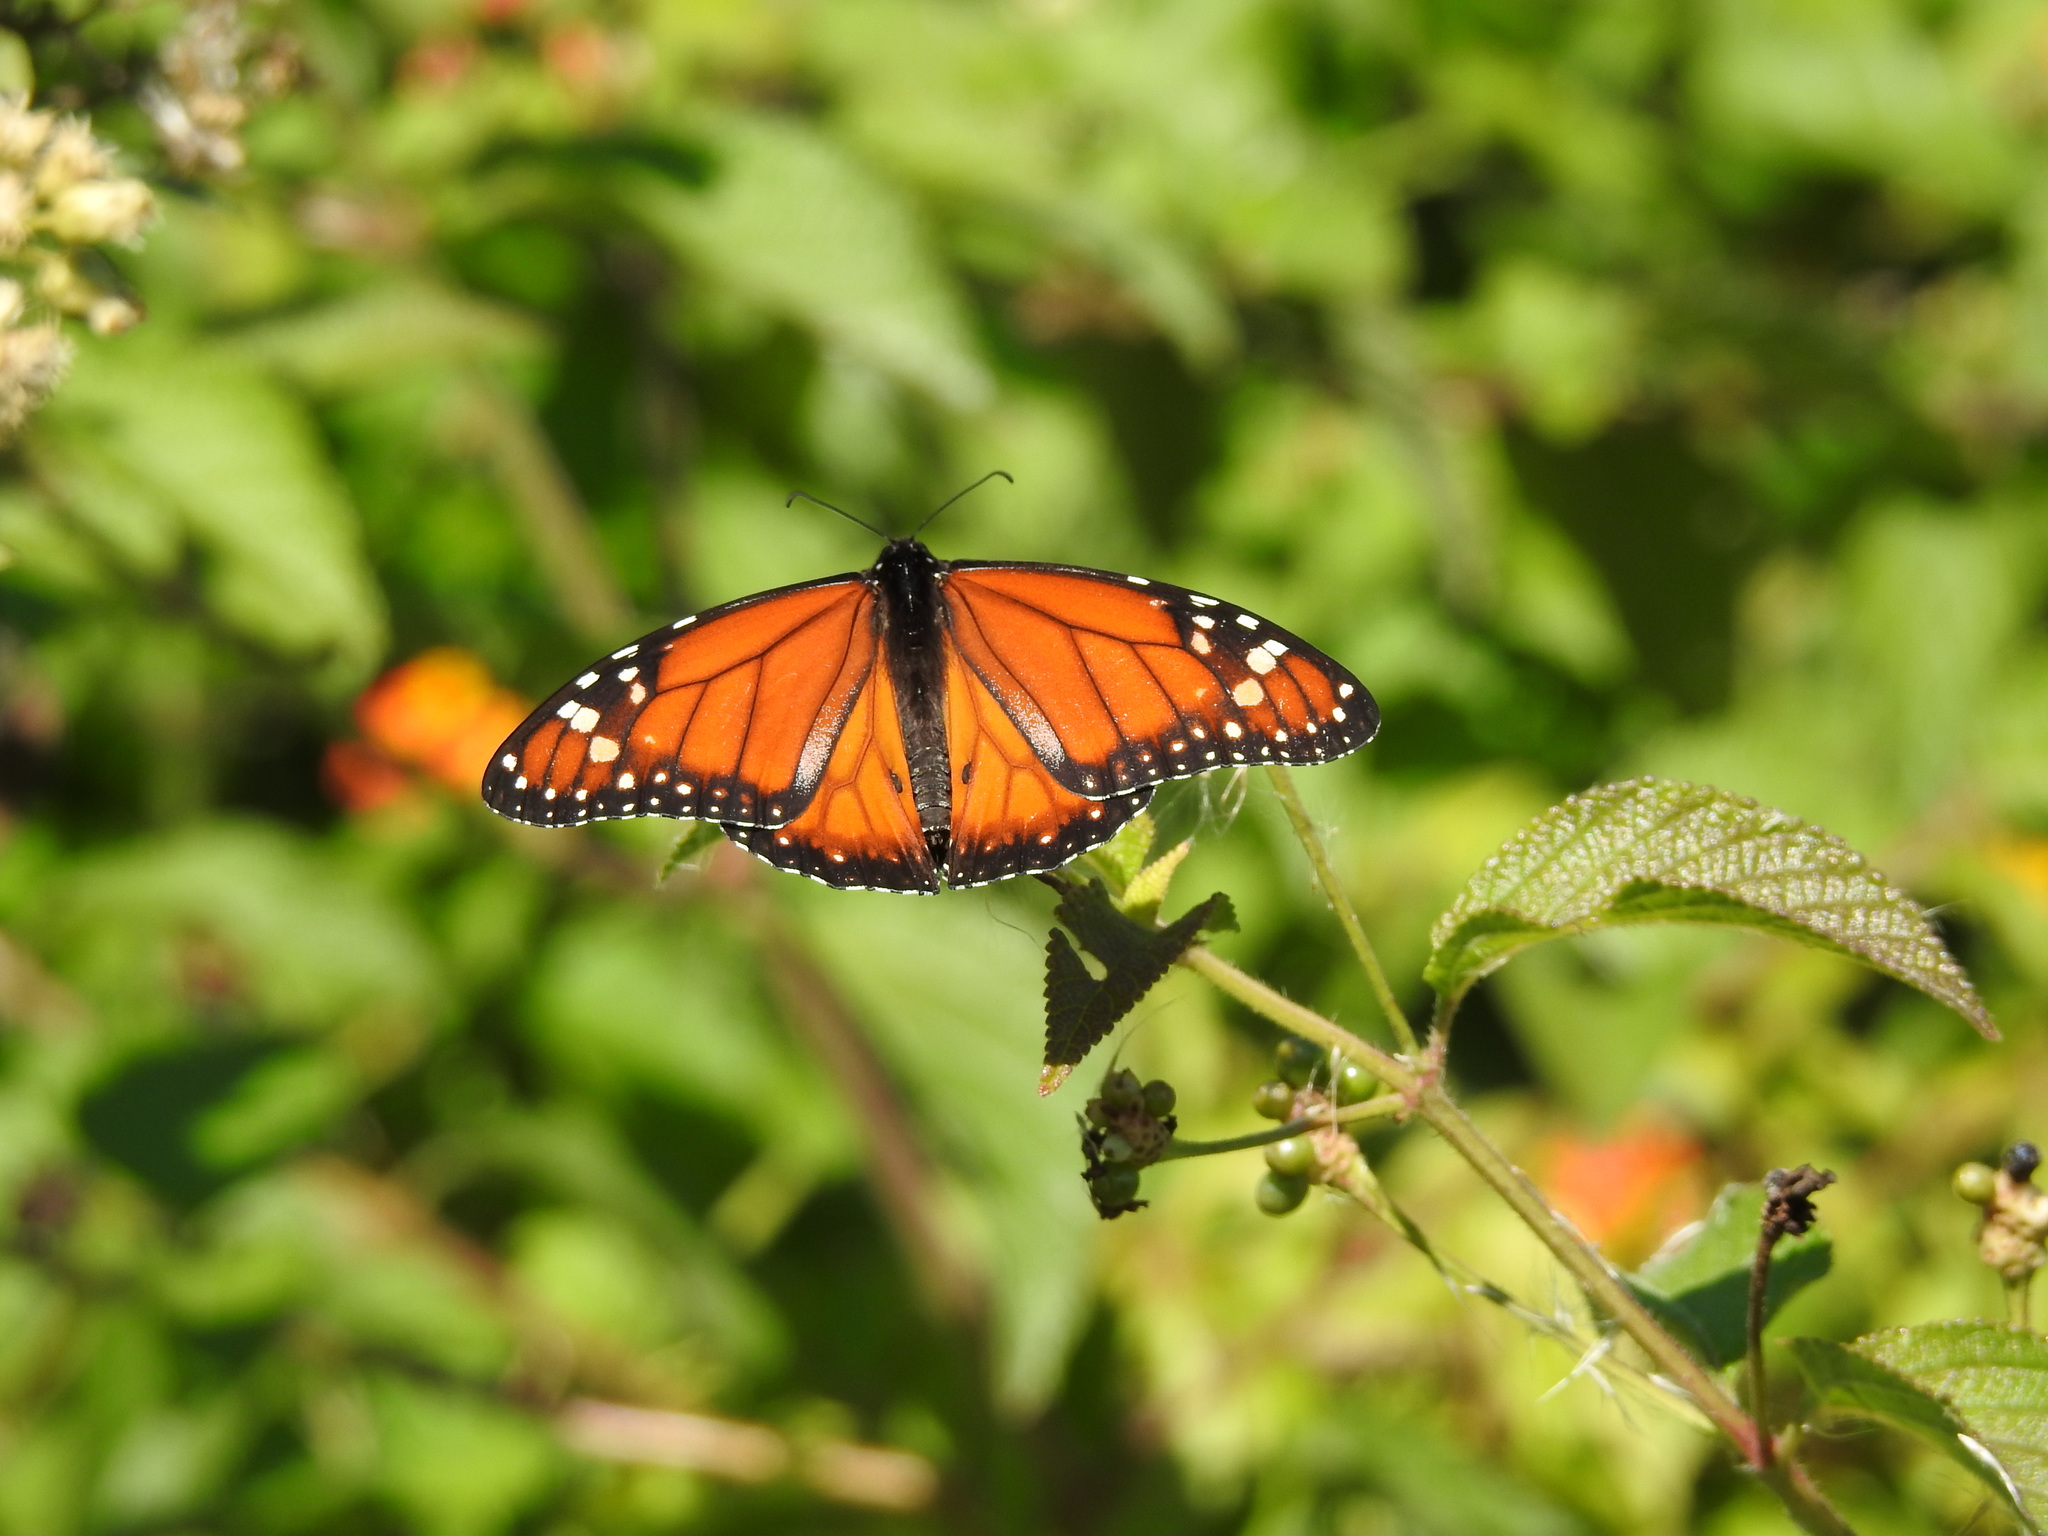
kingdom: Animalia
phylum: Arthropoda
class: Insecta
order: Lepidoptera
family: Nymphalidae
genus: Danaus
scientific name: Danaus erippus
